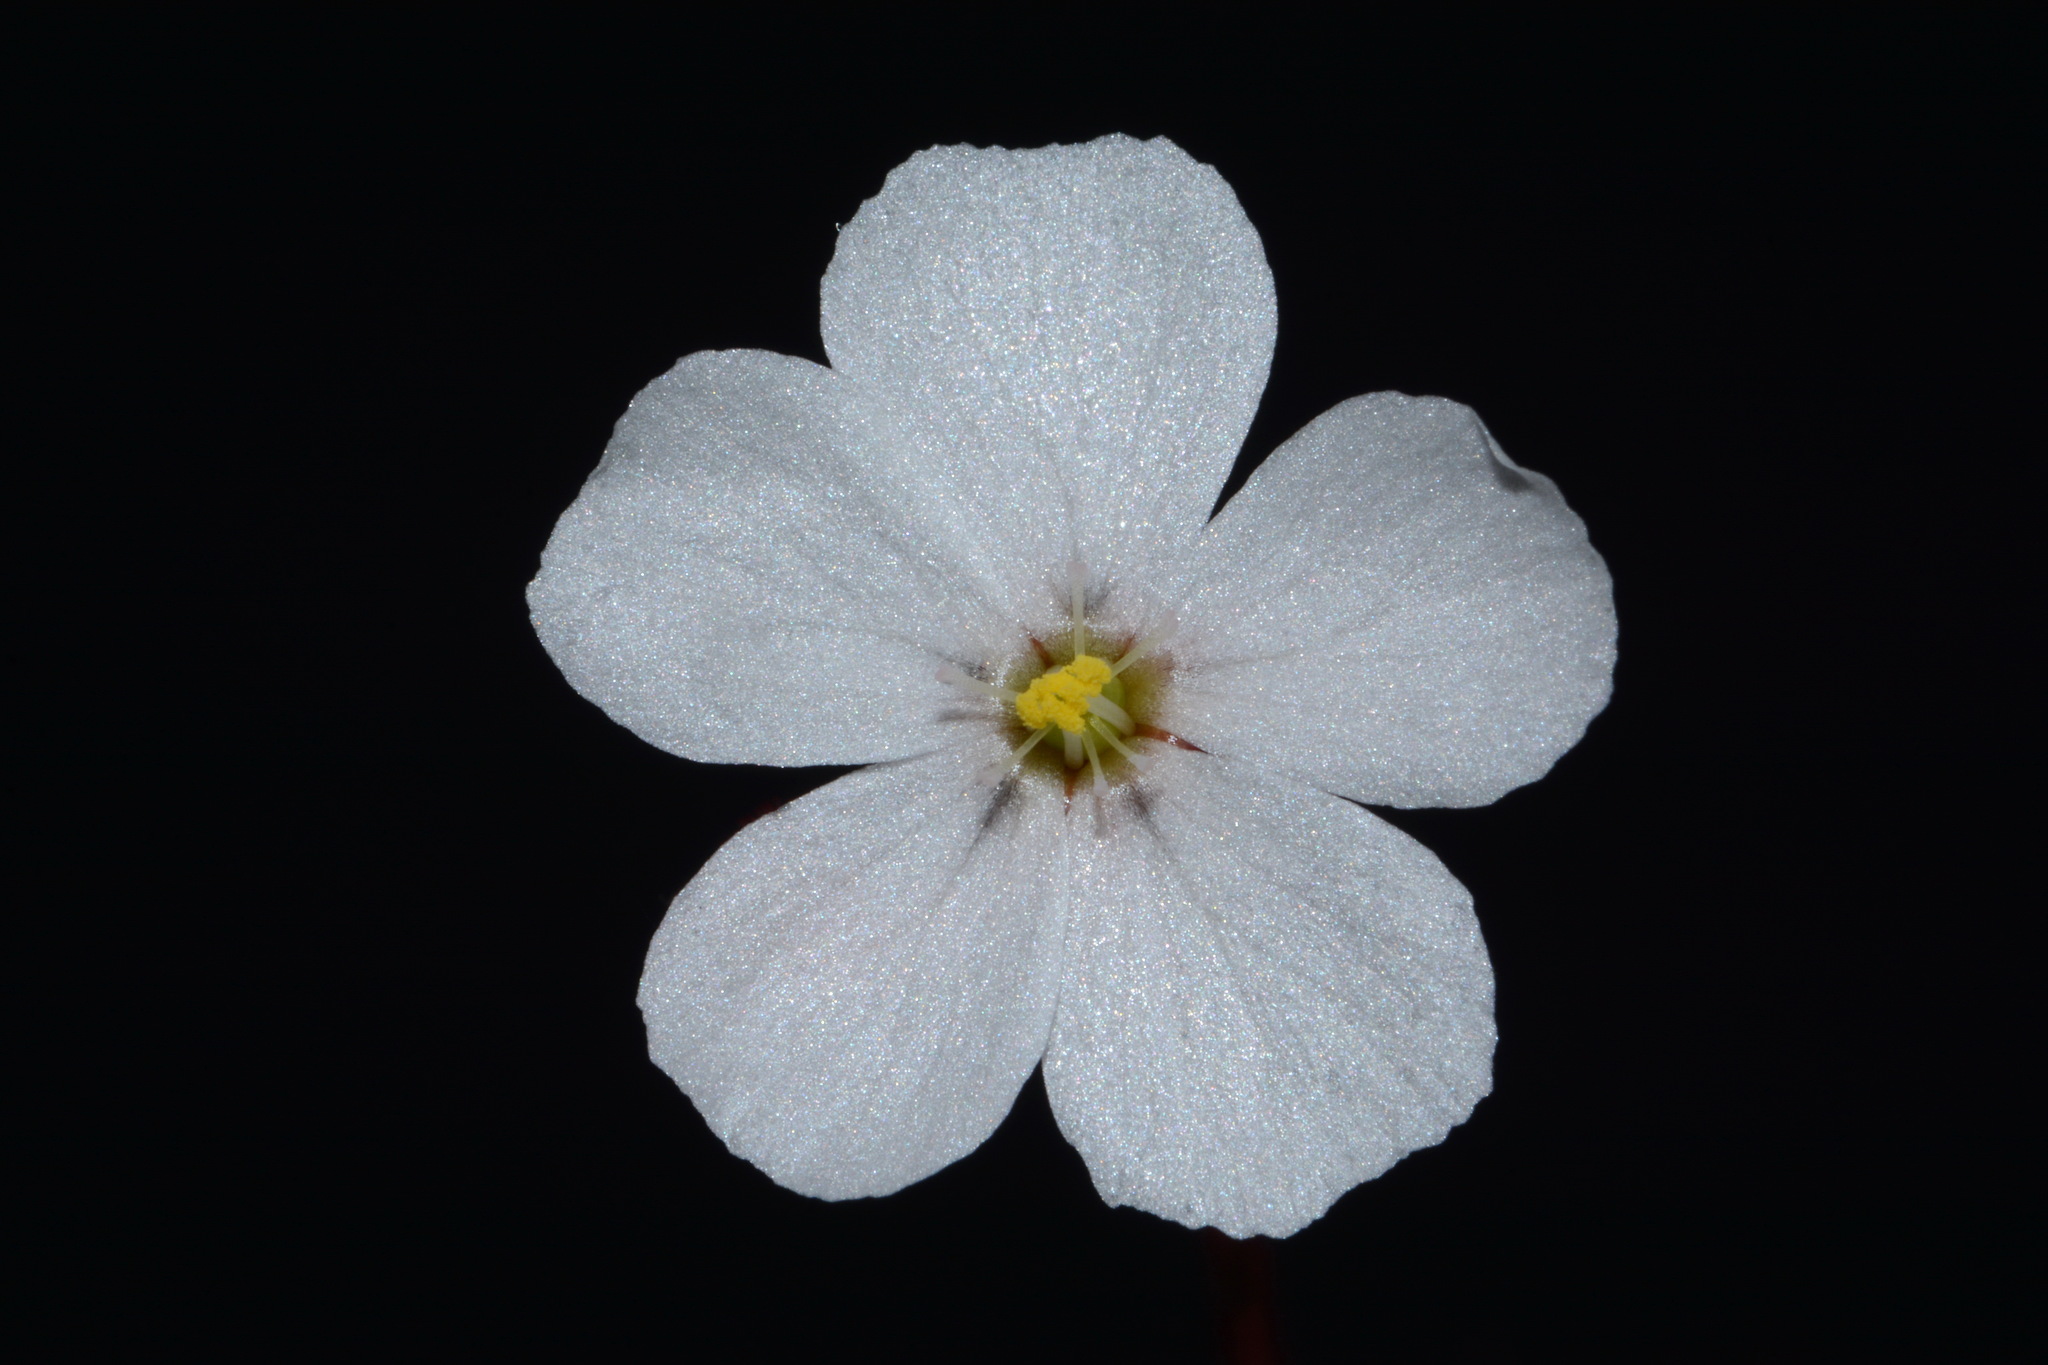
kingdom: Plantae
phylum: Tracheophyta
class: Magnoliopsida
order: Caryophyllales
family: Droseraceae
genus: Drosera
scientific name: Drosera brevifolia
